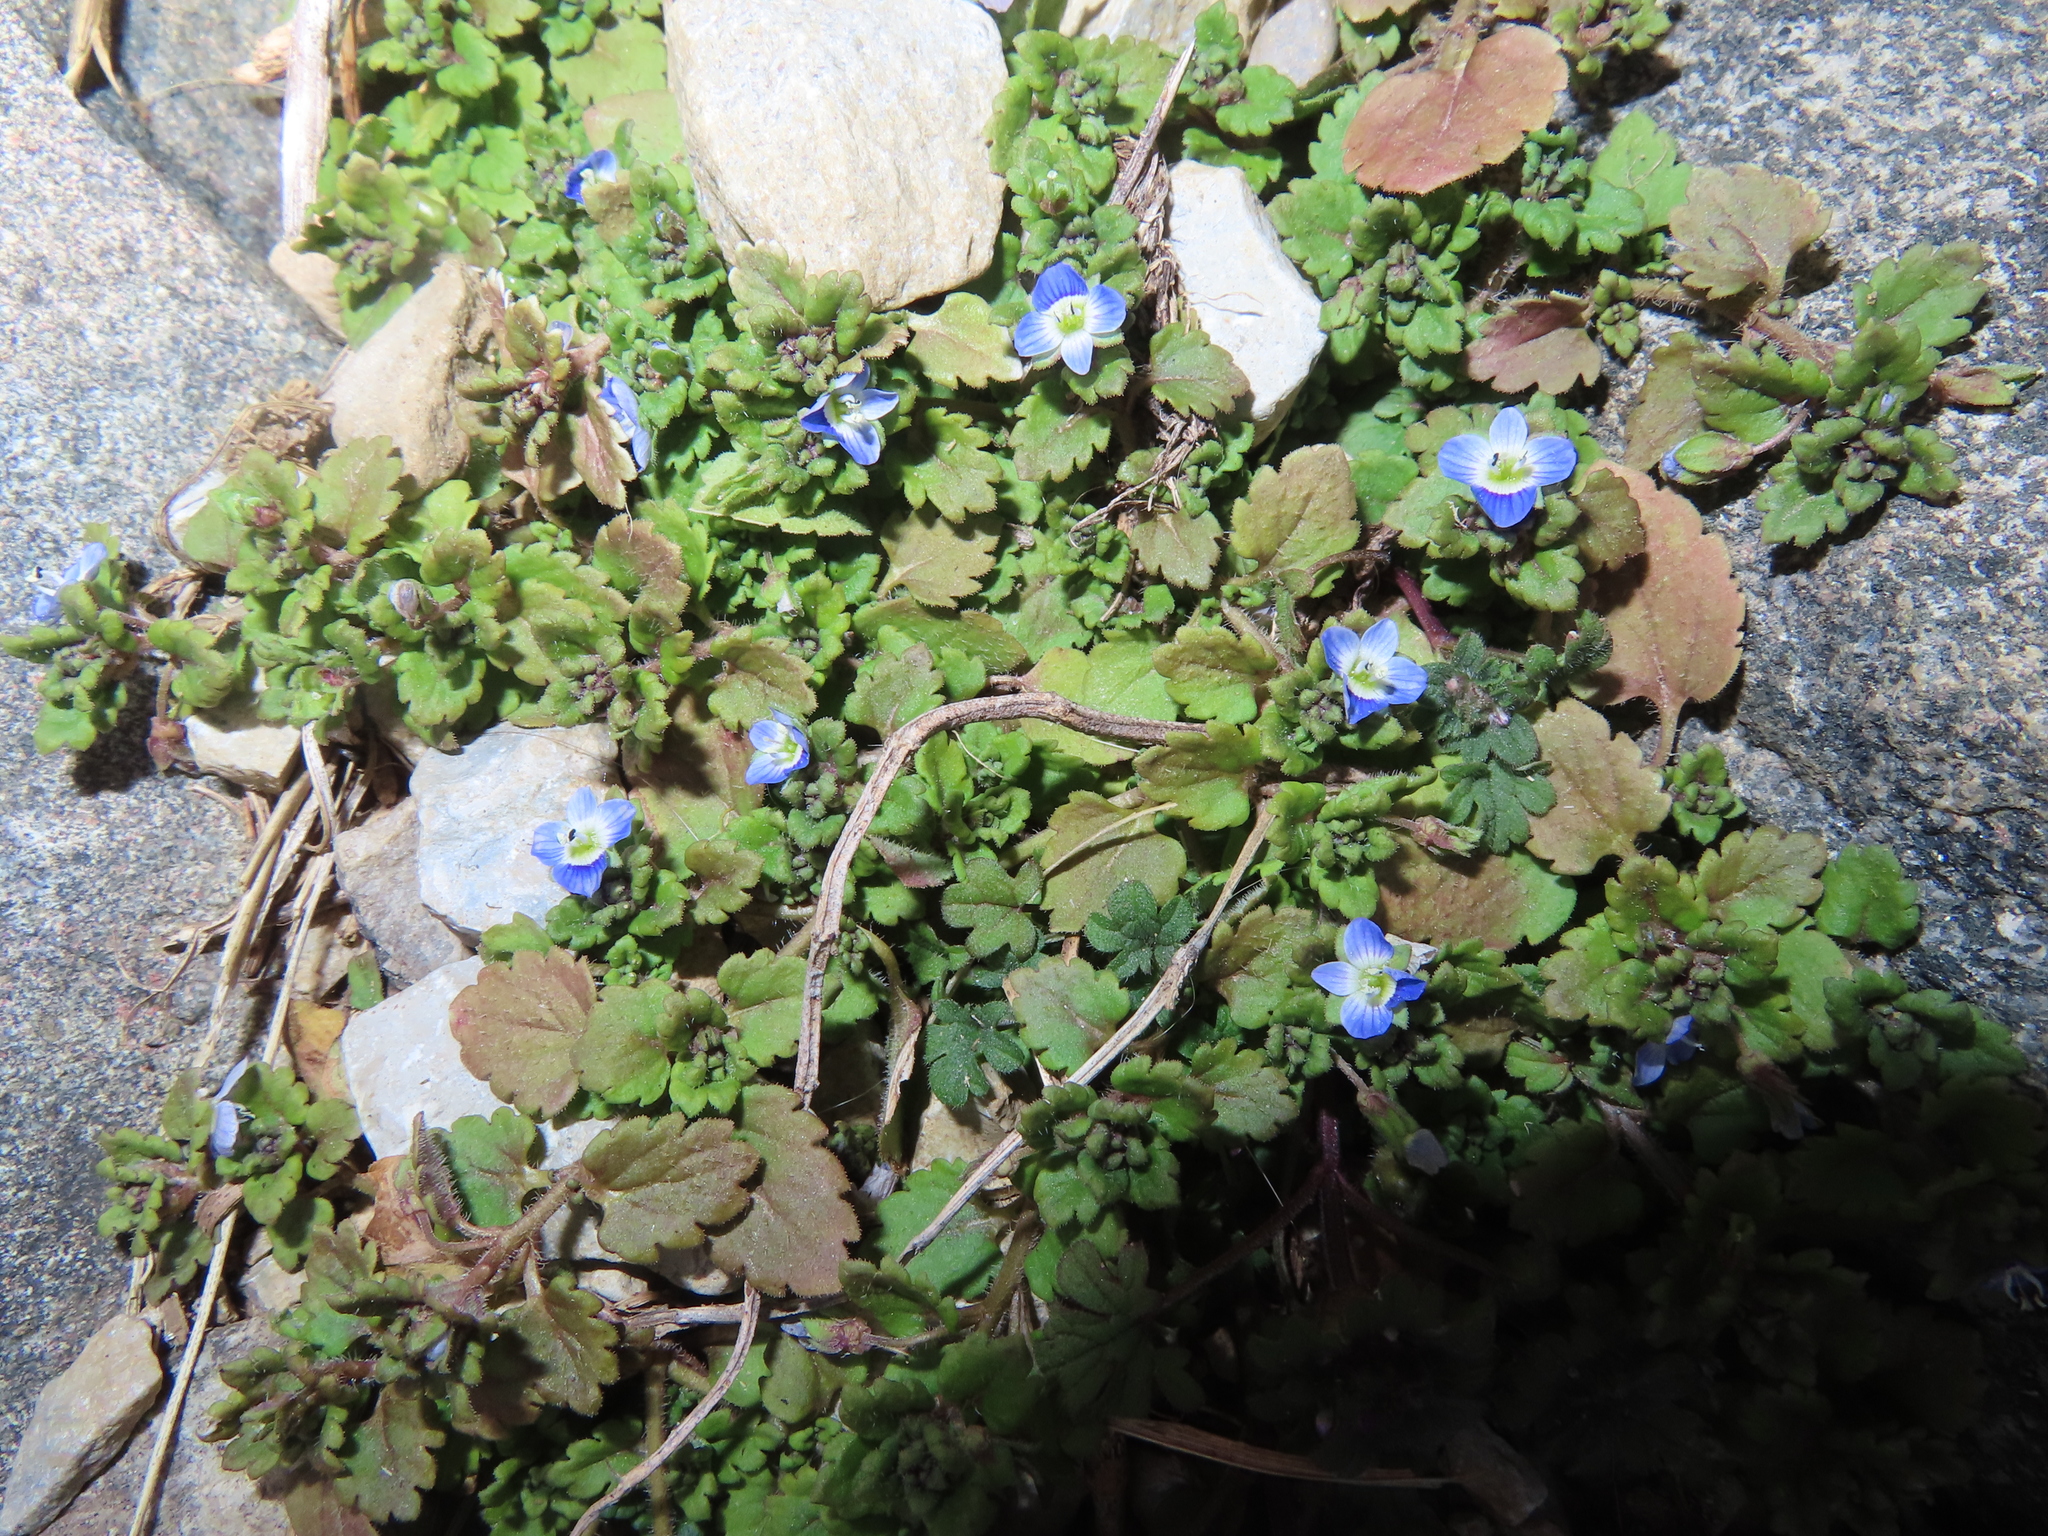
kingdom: Plantae
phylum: Tracheophyta
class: Magnoliopsida
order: Lamiales
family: Plantaginaceae
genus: Veronica
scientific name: Veronica polita
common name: Grey field-speedwell
